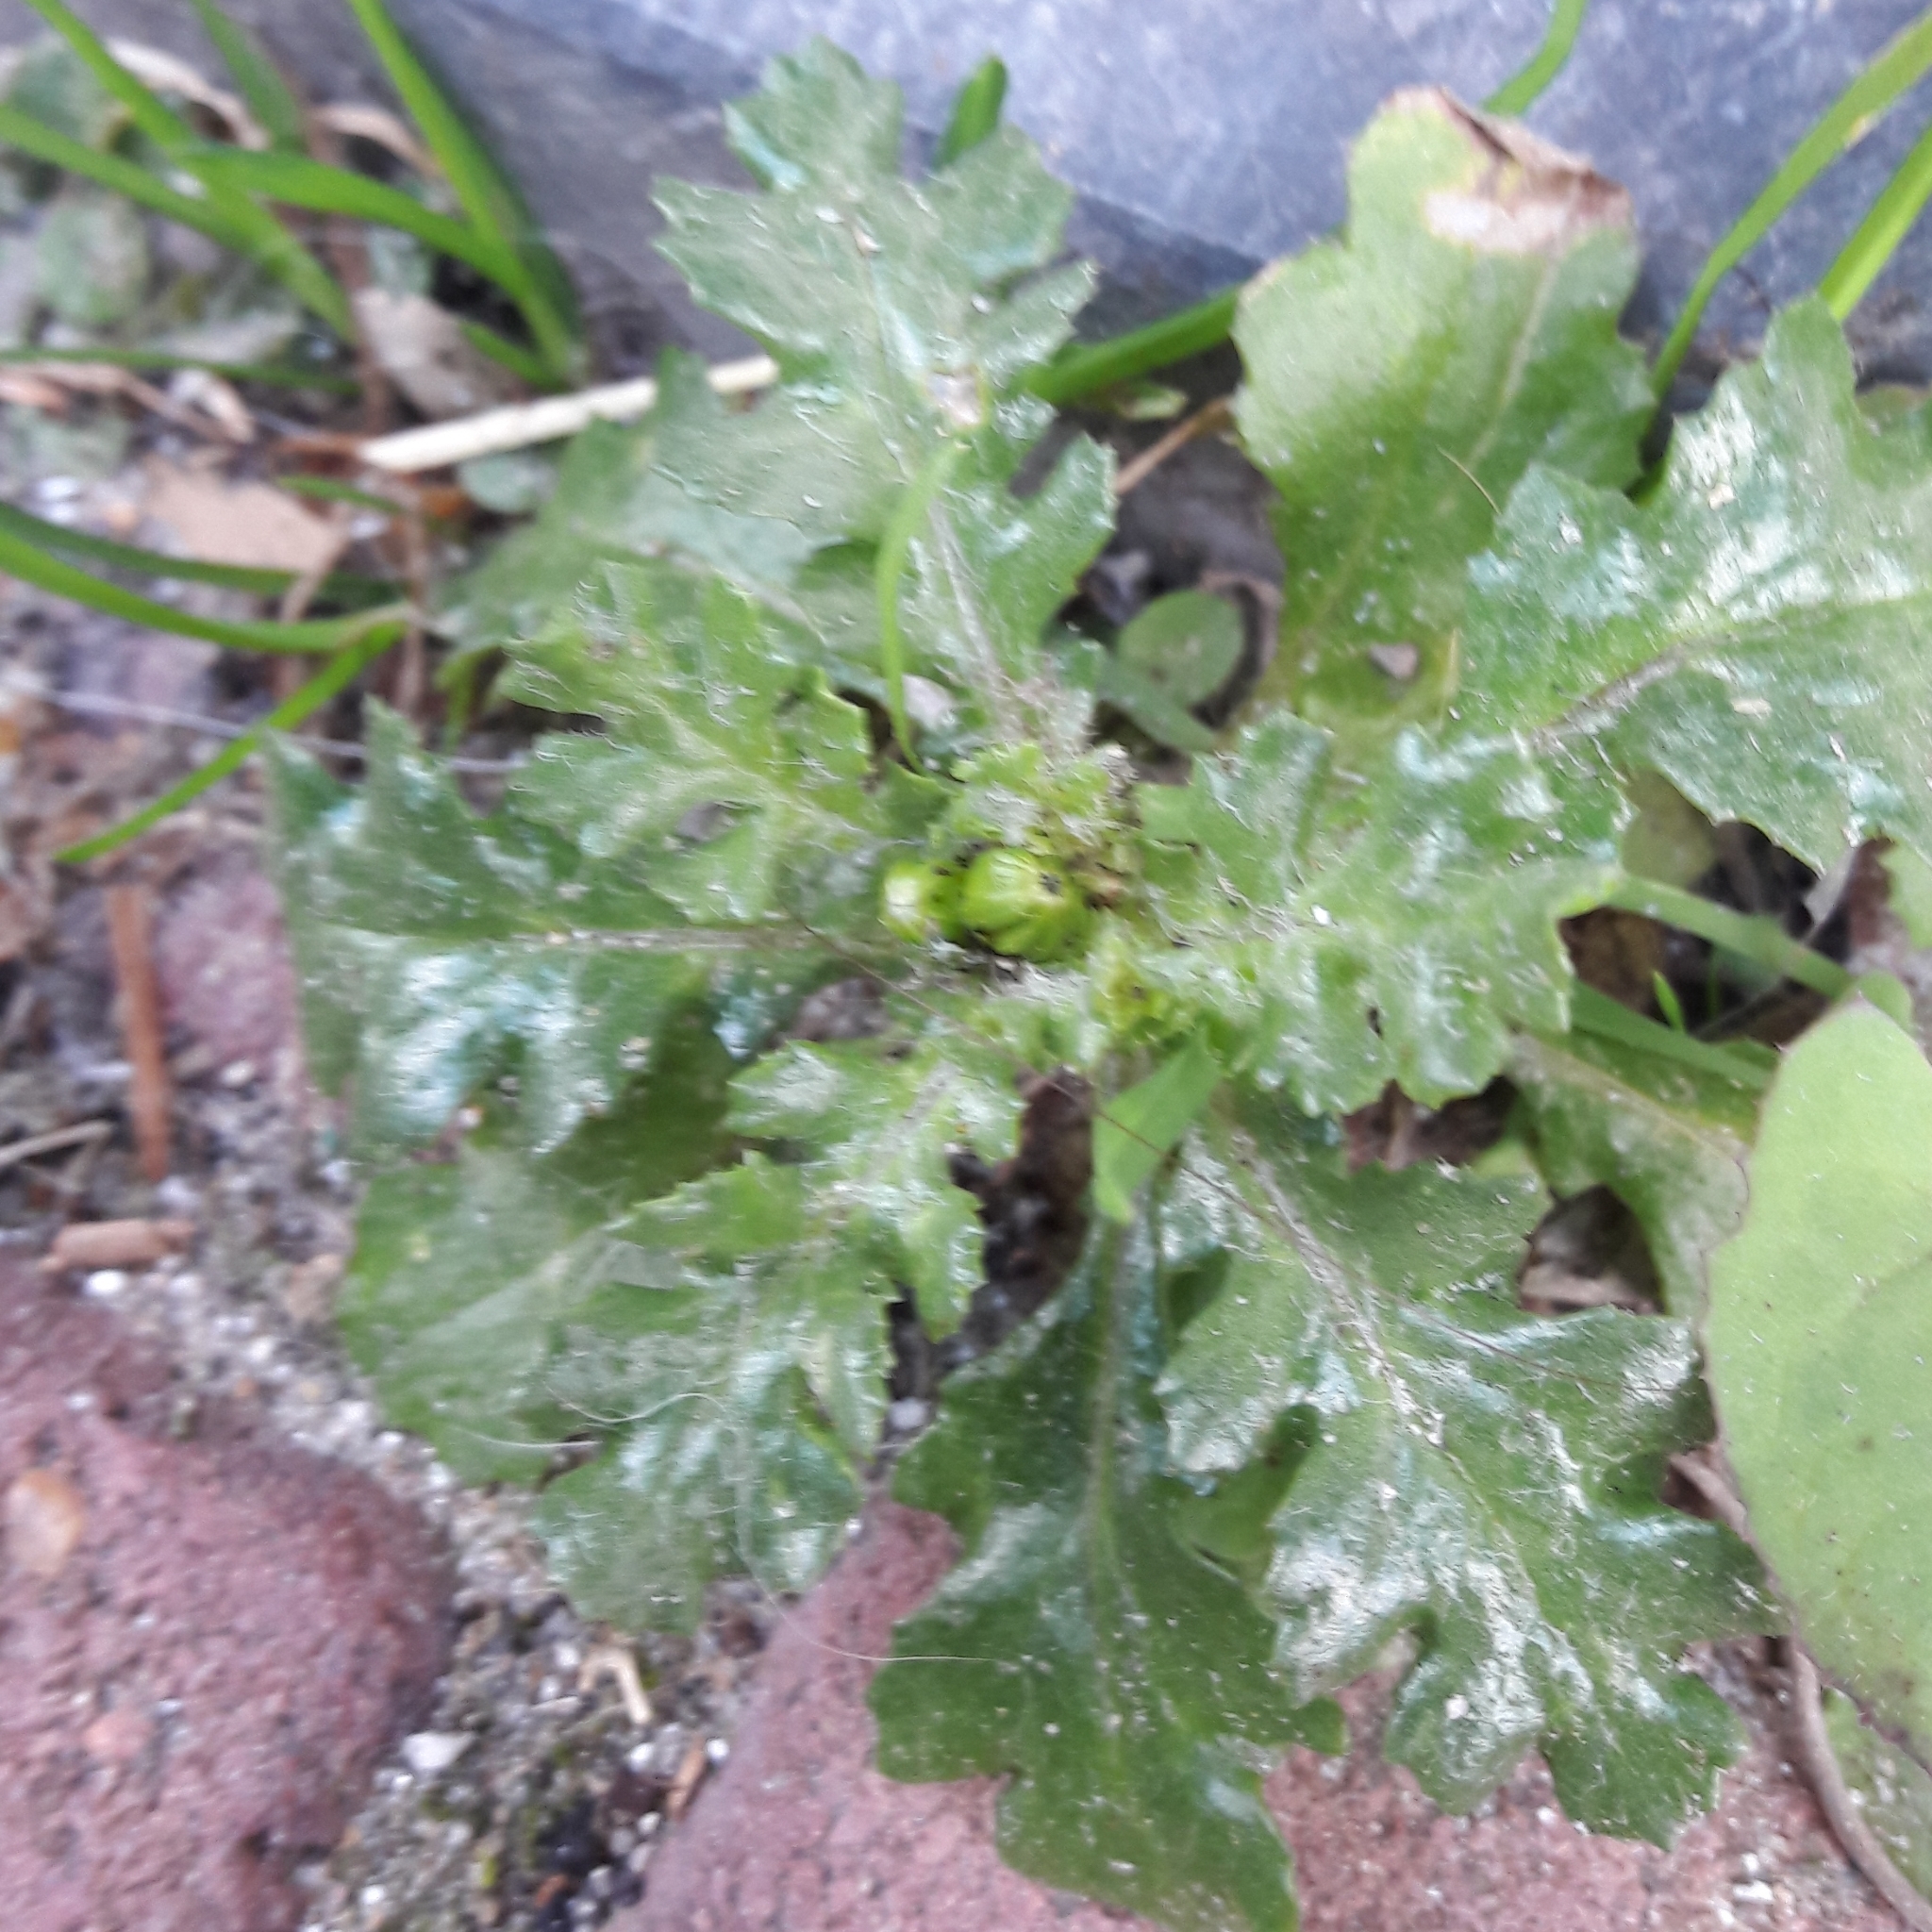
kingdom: Plantae
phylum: Tracheophyta
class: Magnoliopsida
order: Asterales
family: Asteraceae
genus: Senecio
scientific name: Senecio vulgaris
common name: Old-man-in-the-spring
